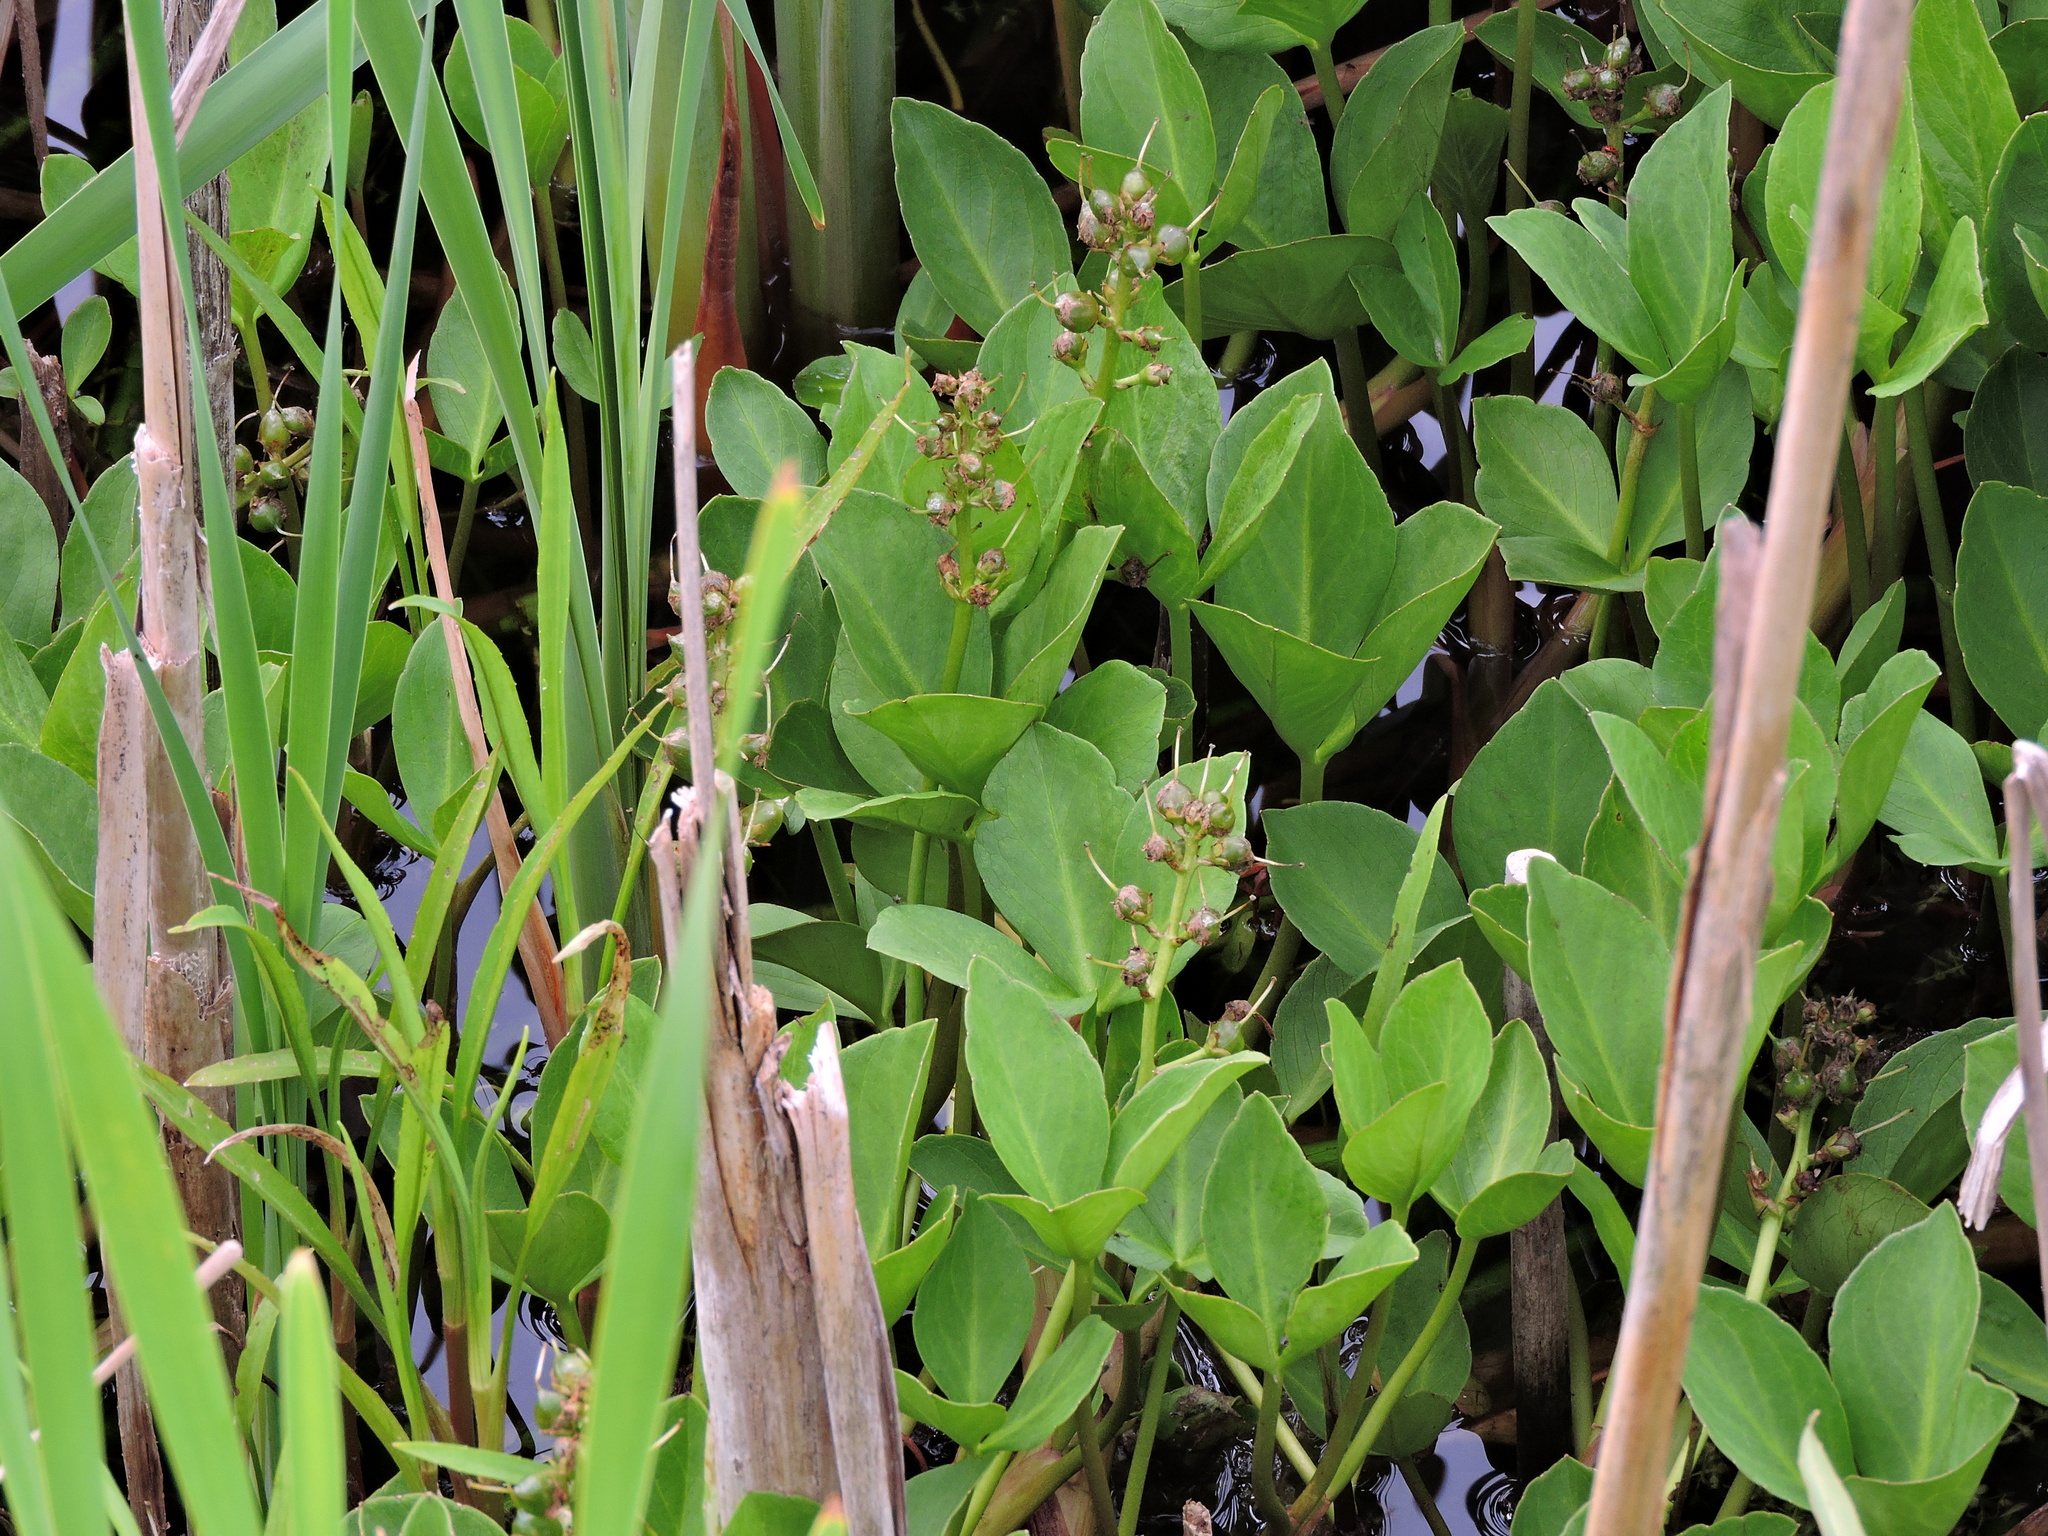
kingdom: Plantae
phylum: Tracheophyta
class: Magnoliopsida
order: Asterales
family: Menyanthaceae
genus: Menyanthes
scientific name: Menyanthes trifoliata
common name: Bogbean
